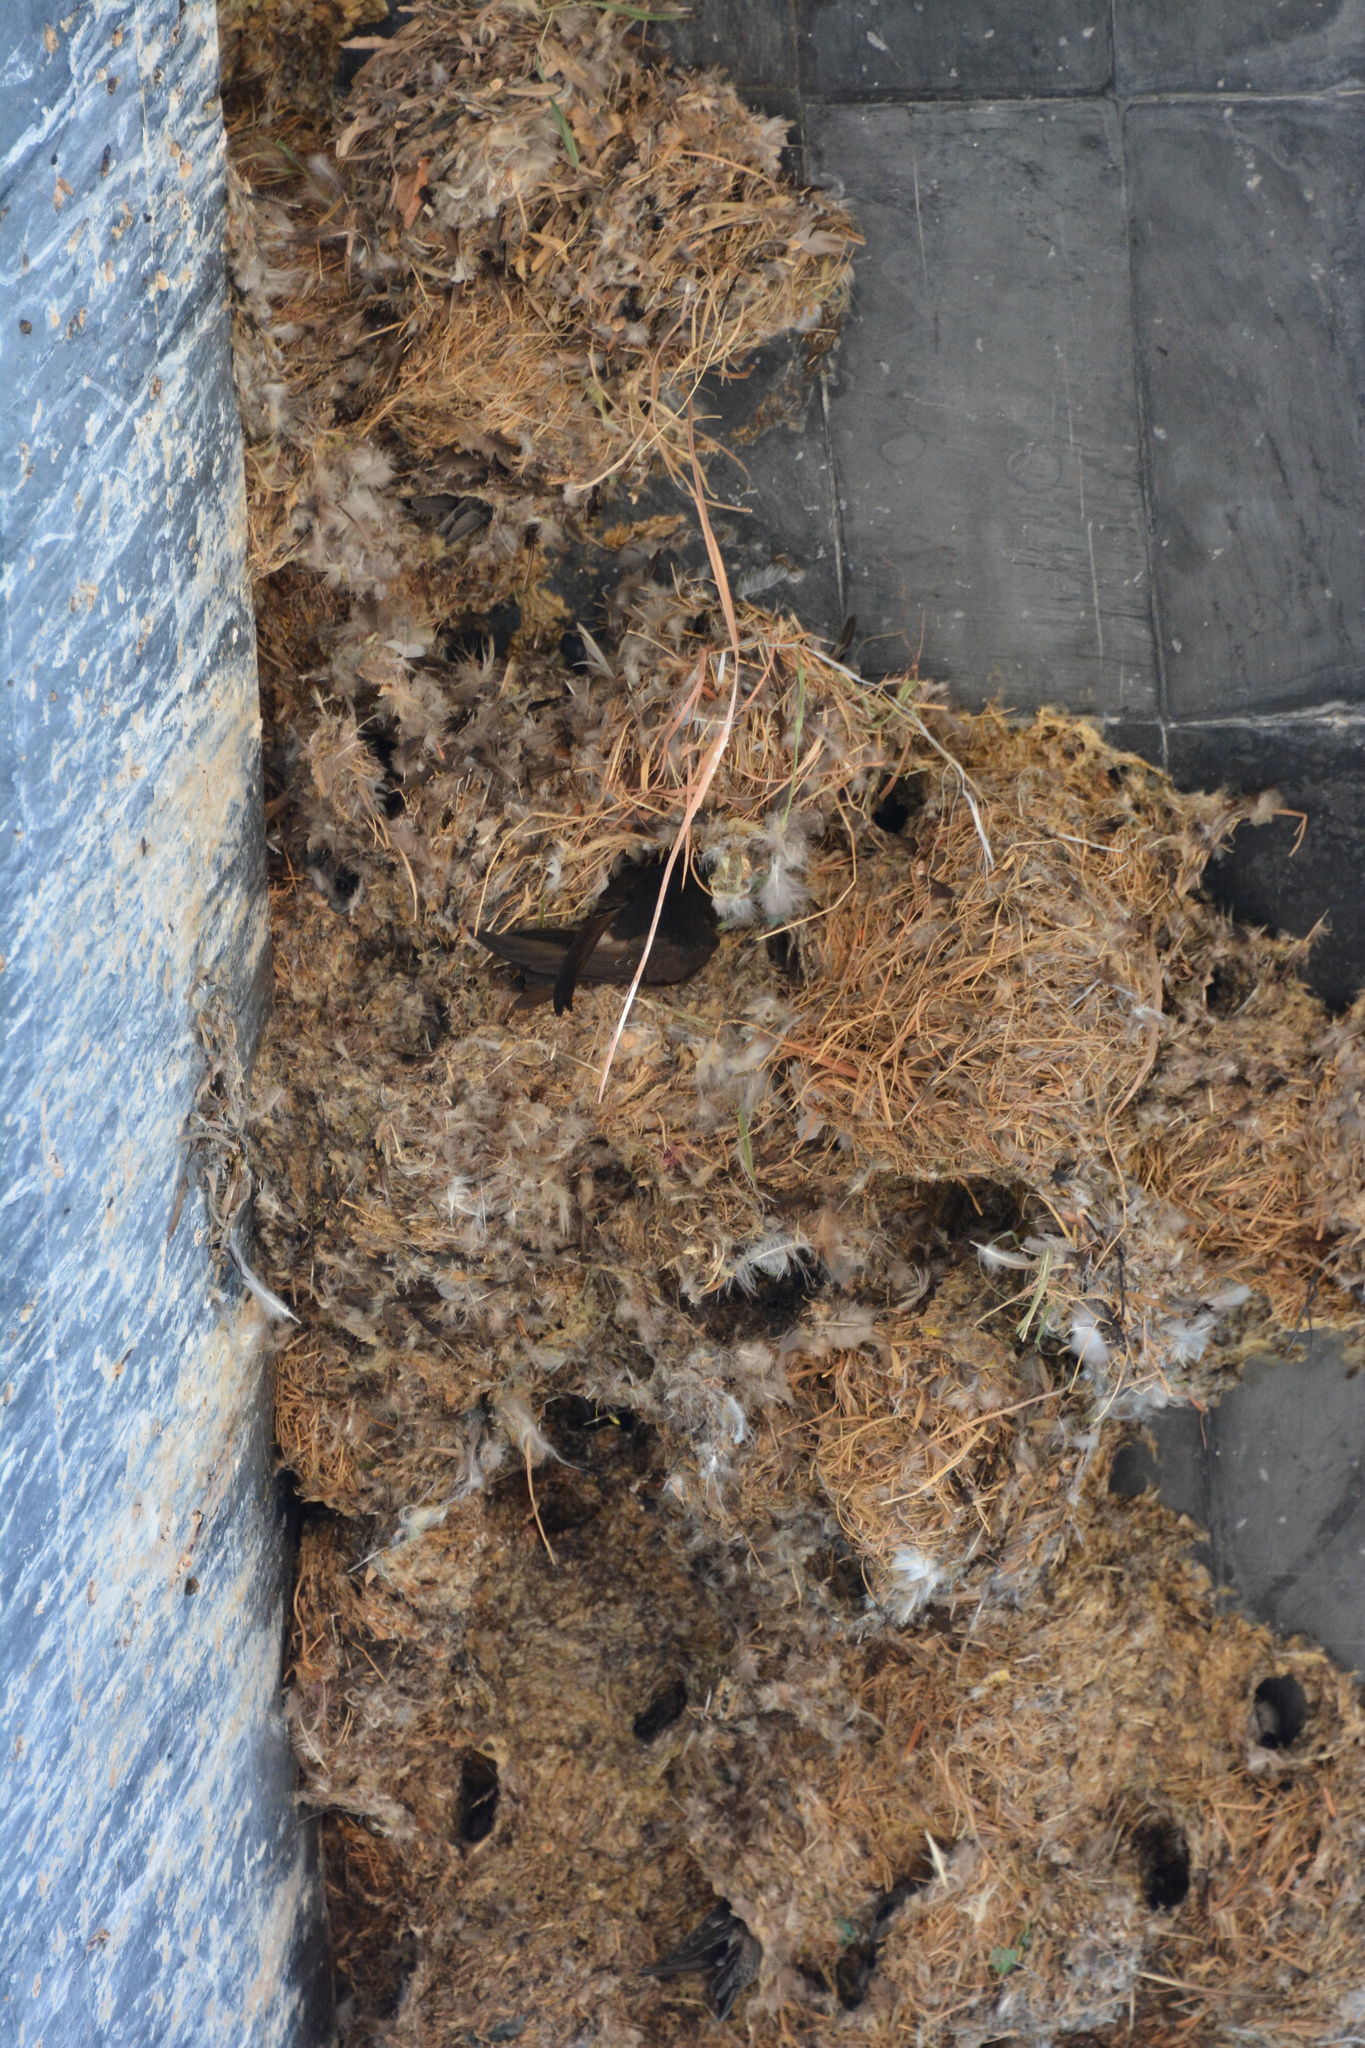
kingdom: Animalia
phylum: Chordata
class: Aves
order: Apodiformes
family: Apodidae
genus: Apus
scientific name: Apus nipalensis
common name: House swift
